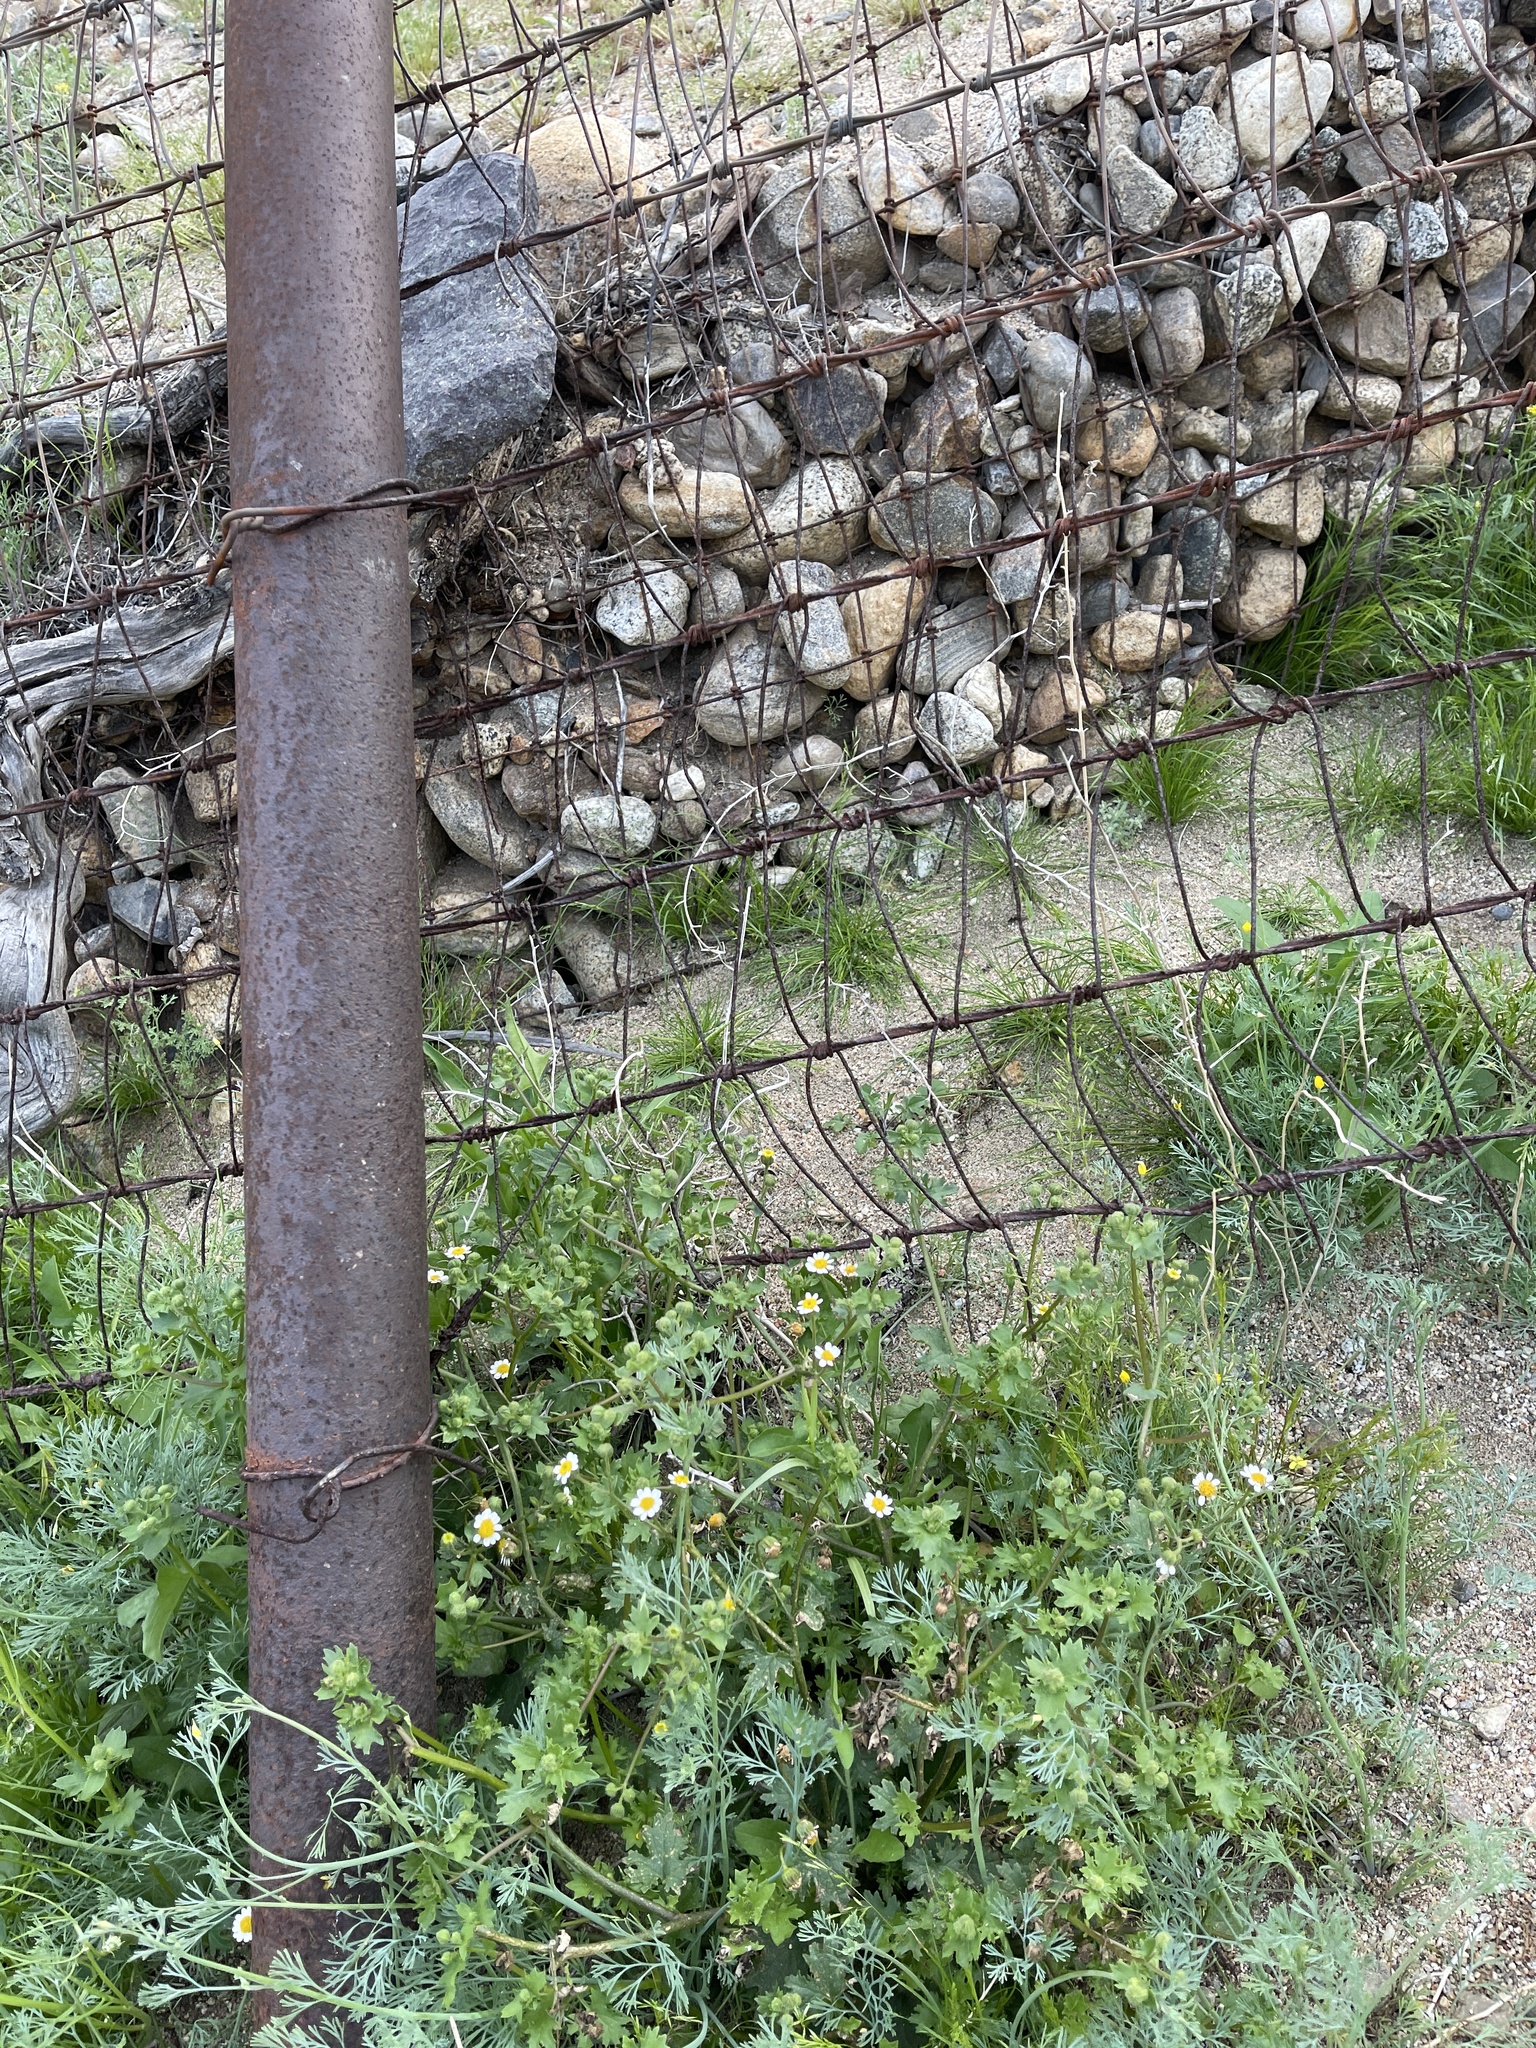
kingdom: Plantae
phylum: Tracheophyta
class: Magnoliopsida
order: Asterales
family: Asteraceae
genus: Laphamia
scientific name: Laphamia emoryi
